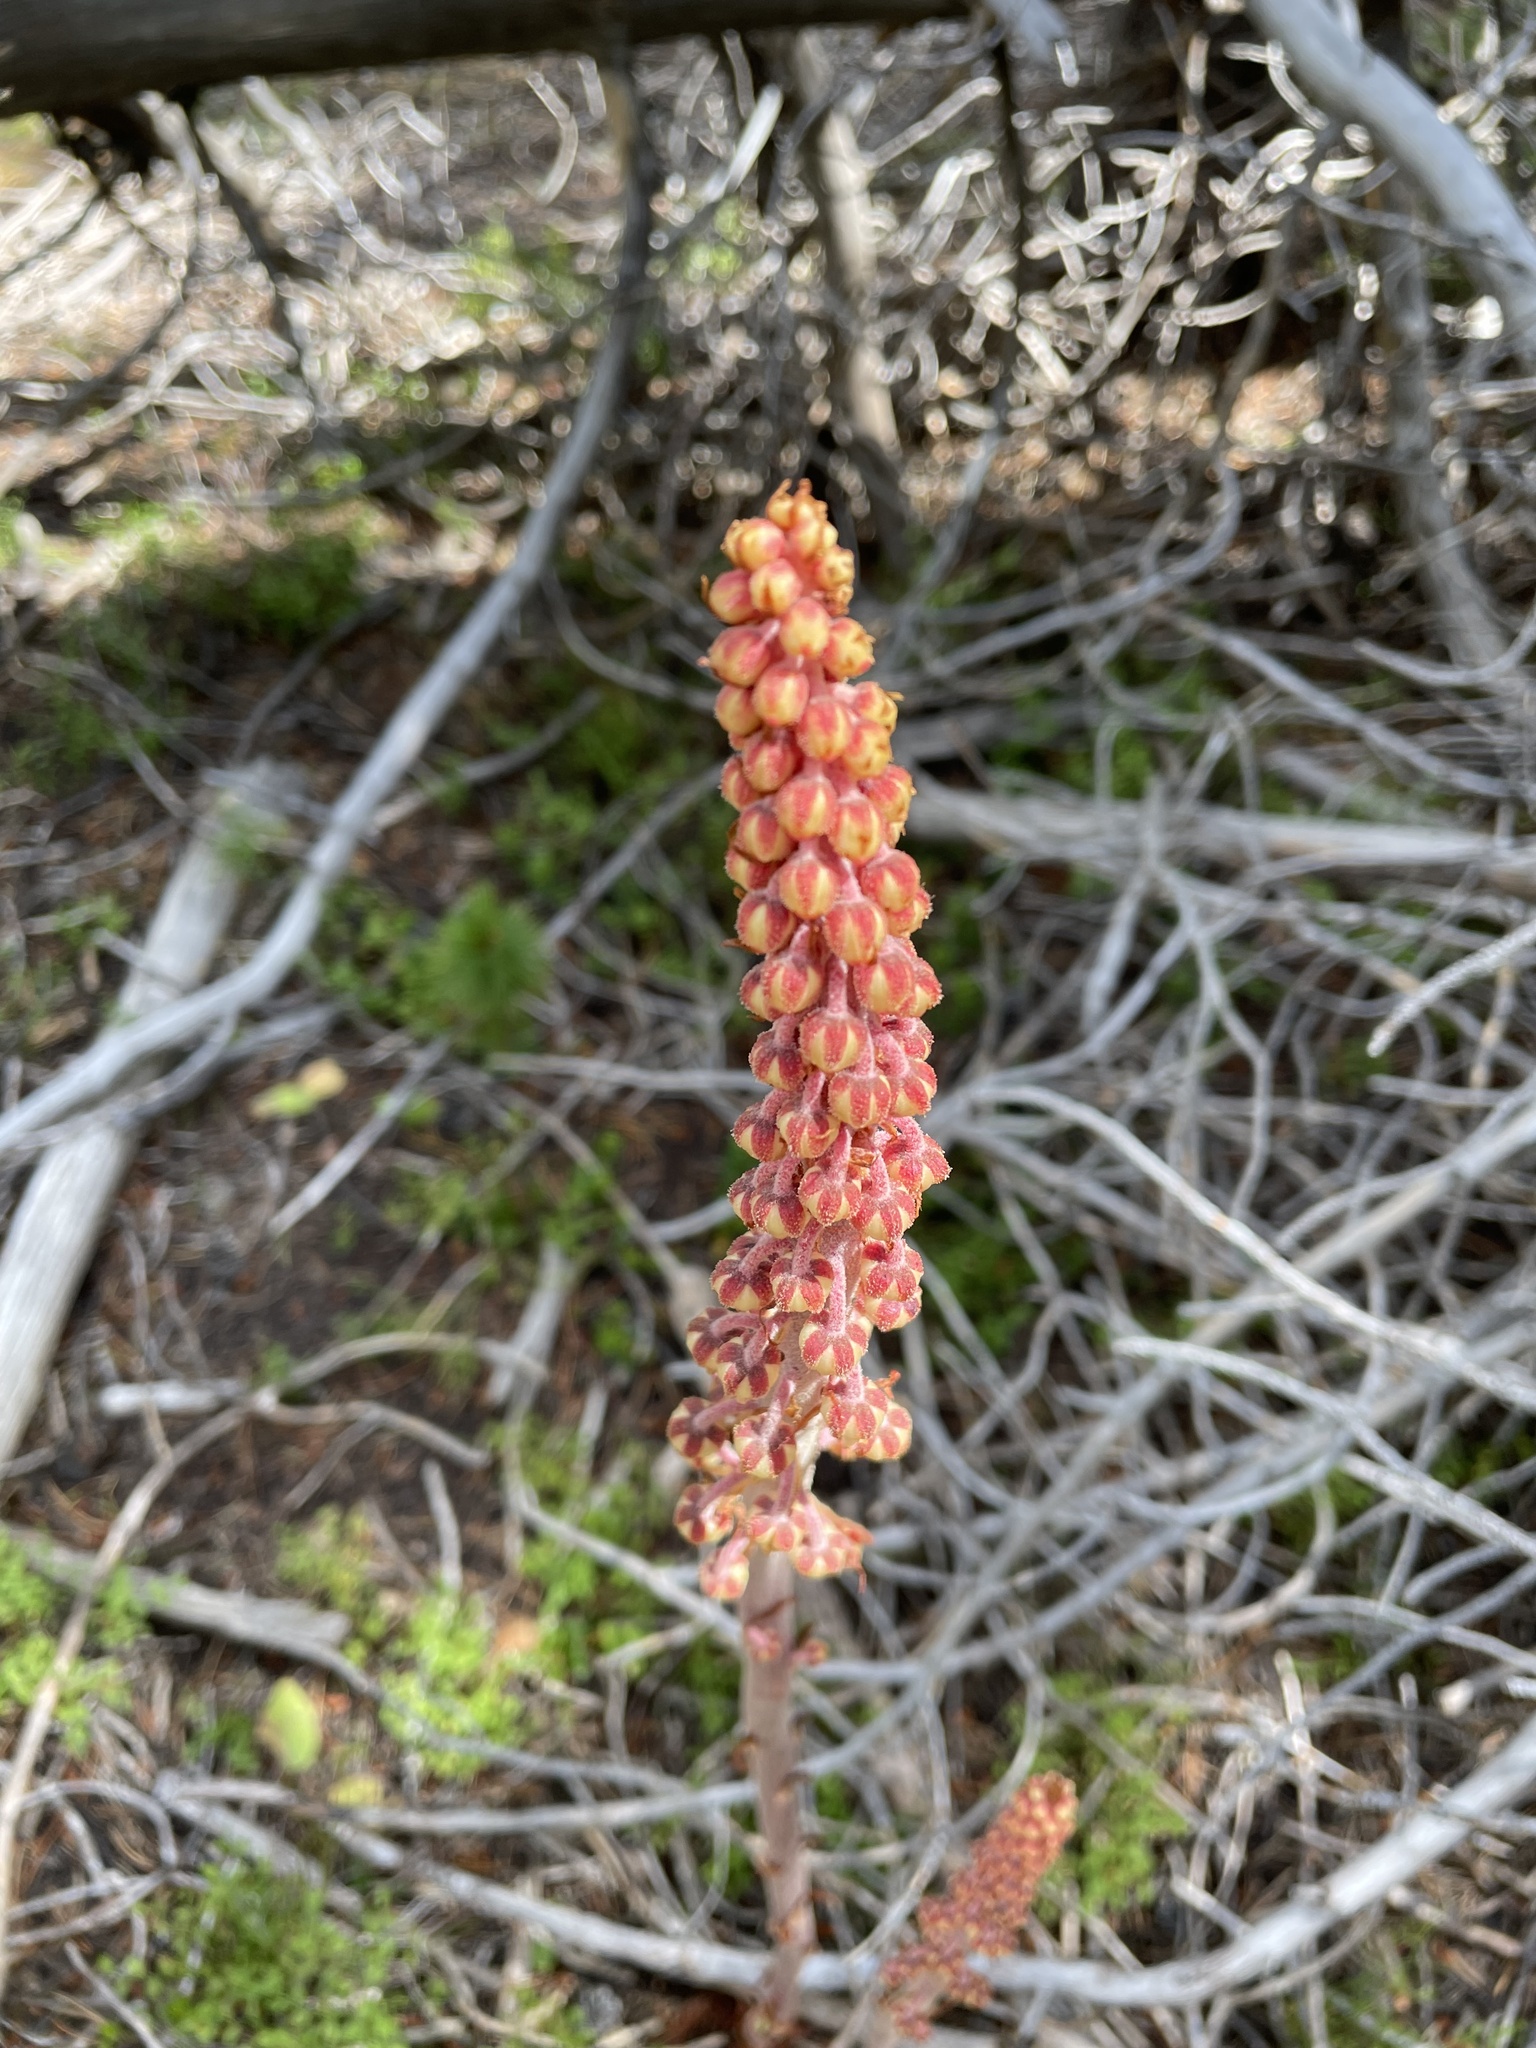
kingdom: Plantae
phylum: Tracheophyta
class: Magnoliopsida
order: Ericales
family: Ericaceae
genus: Pterospora
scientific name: Pterospora andromedea
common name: Giant bird's-nest
